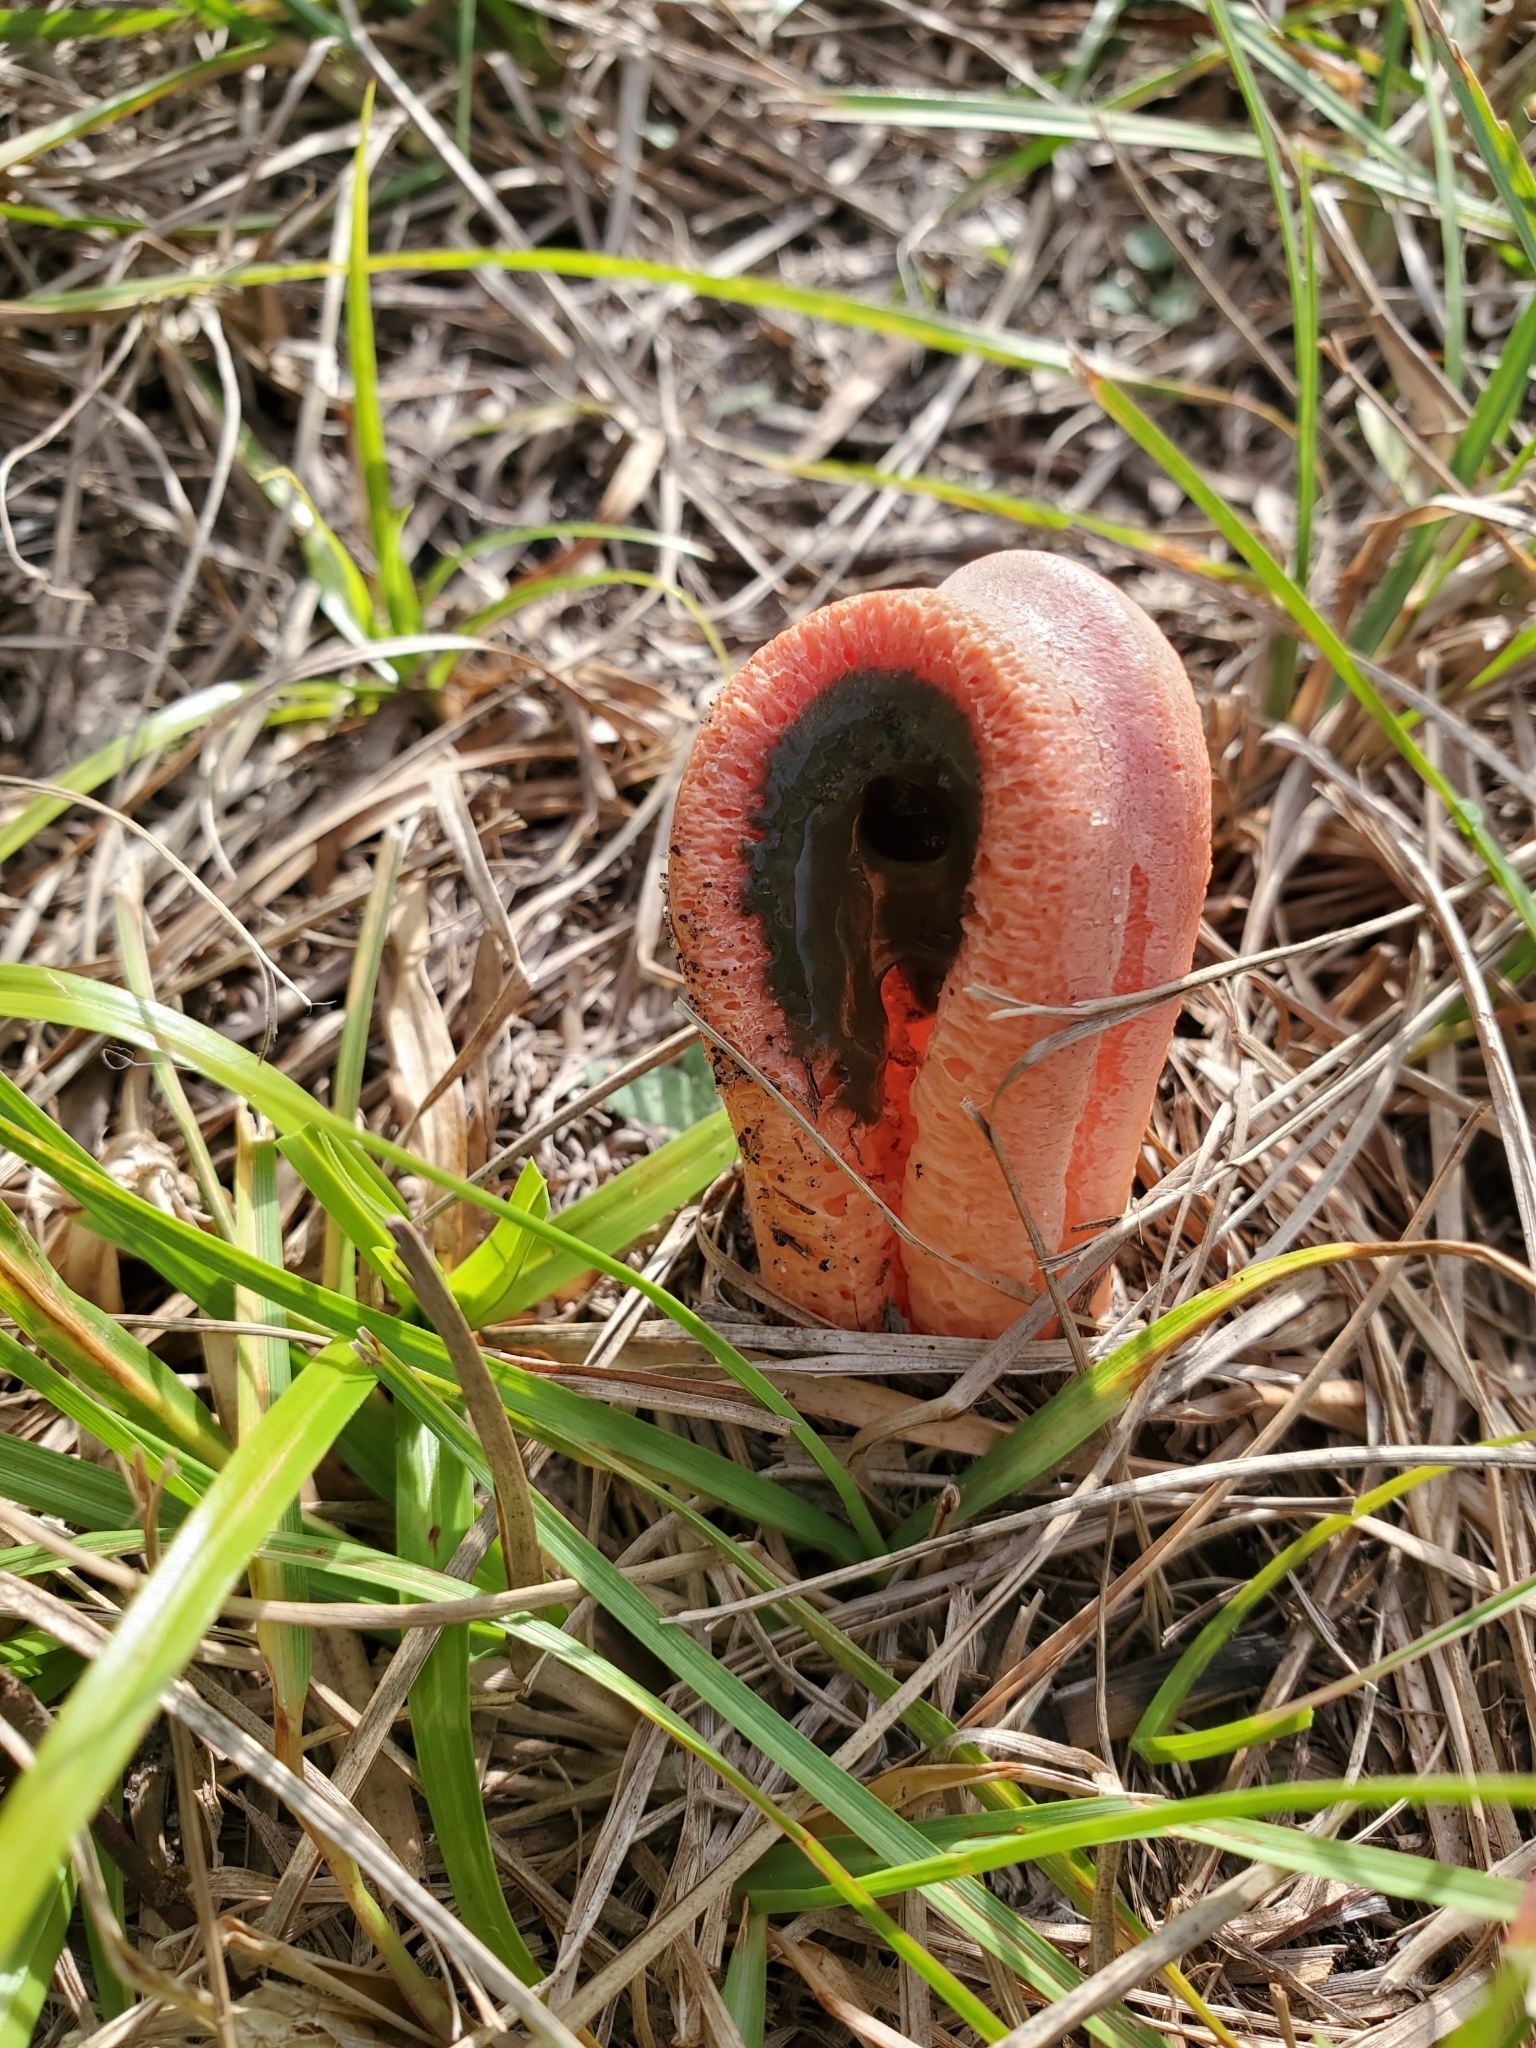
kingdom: Fungi
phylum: Basidiomycota
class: Agaricomycetes
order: Phallales
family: Phallaceae
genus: Clathrus
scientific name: Clathrus columnatus
